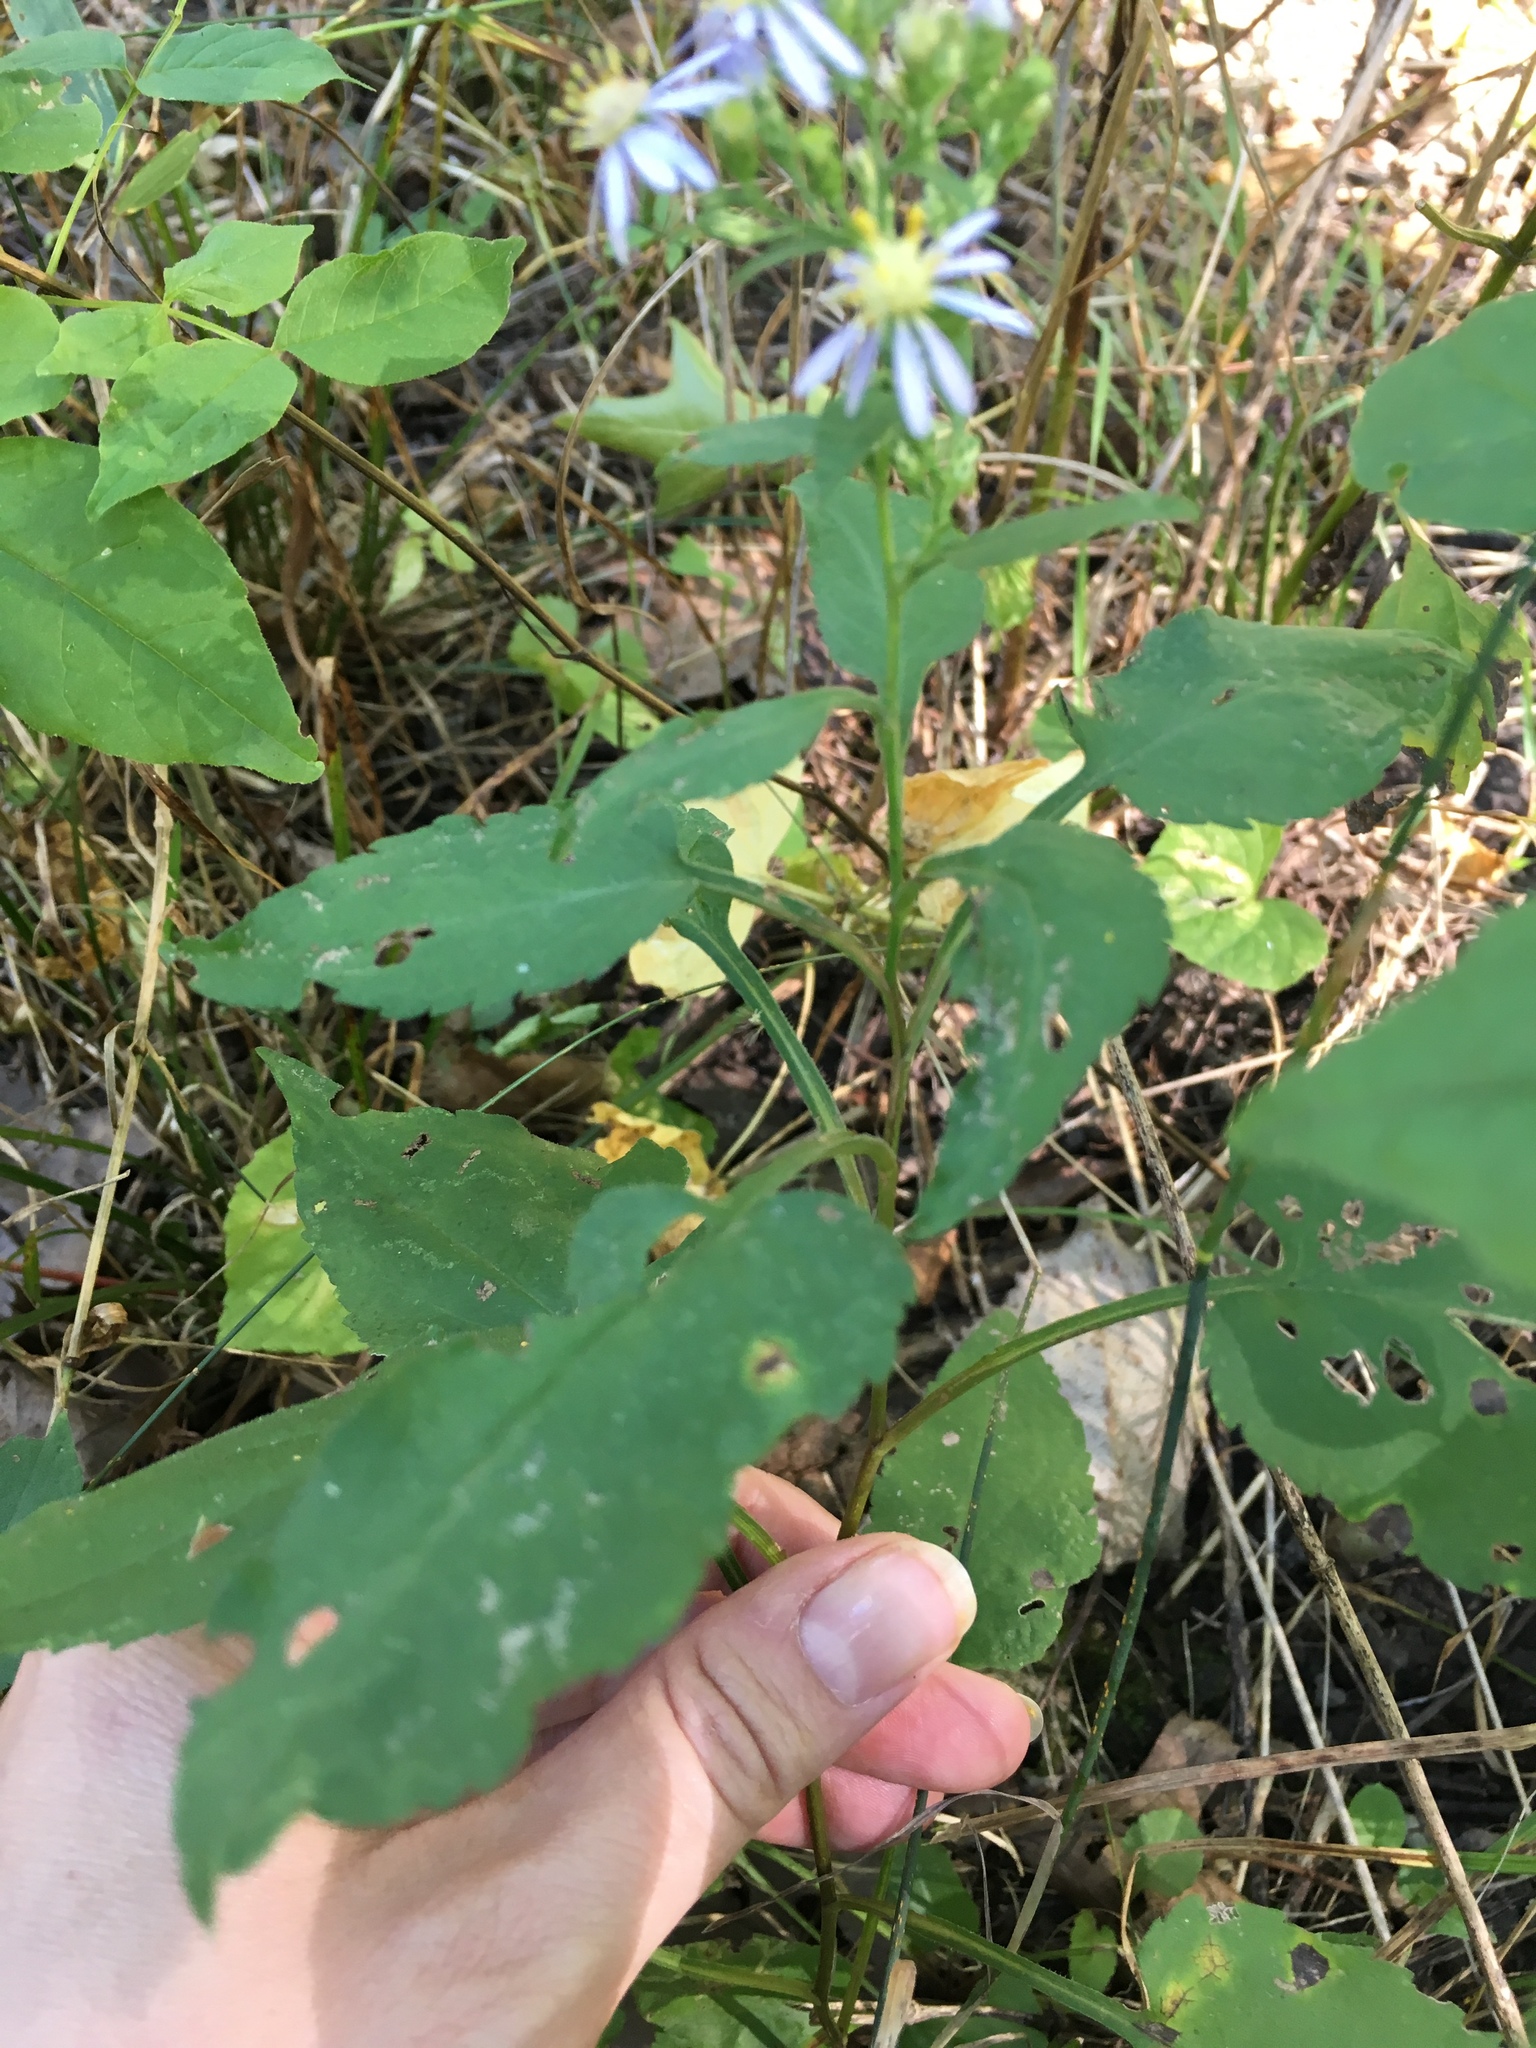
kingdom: Plantae
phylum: Tracheophyta
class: Magnoliopsida
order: Asterales
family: Asteraceae
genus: Symphyotrichum
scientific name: Symphyotrichum drummondii
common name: Drummond's aster
